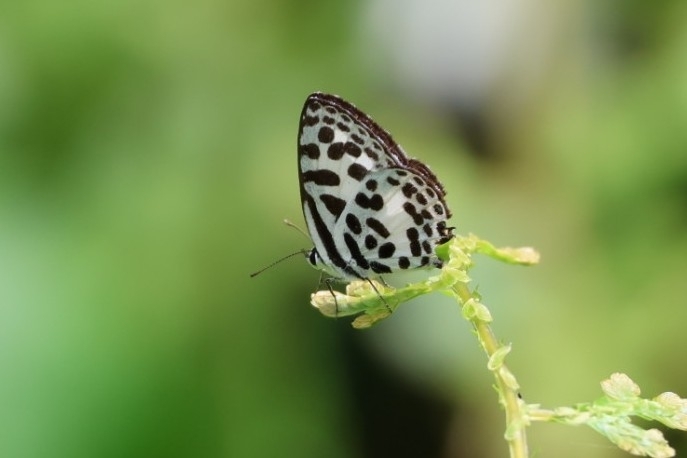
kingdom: Animalia
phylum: Arthropoda
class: Insecta
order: Lepidoptera
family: Lycaenidae
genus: Castalius
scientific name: Castalius rosimon
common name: Common pierrot
